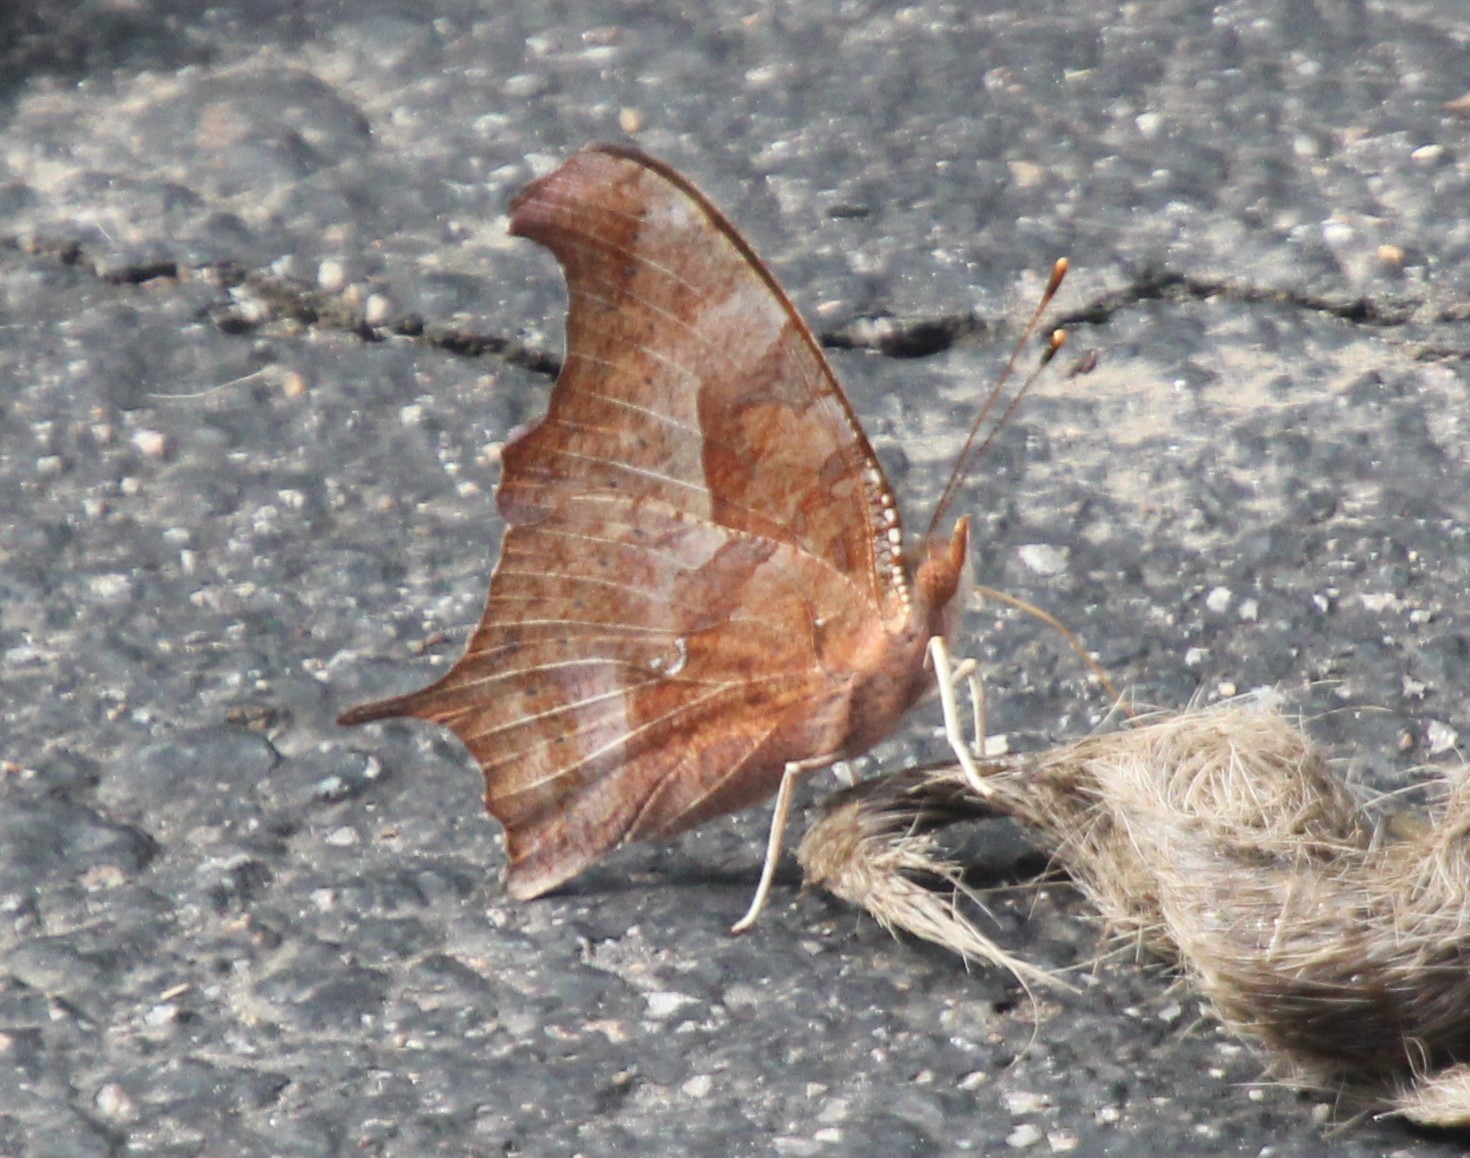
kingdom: Animalia
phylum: Arthropoda
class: Insecta
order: Lepidoptera
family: Nymphalidae
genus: Polygonia
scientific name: Polygonia interrogationis
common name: Question mark
